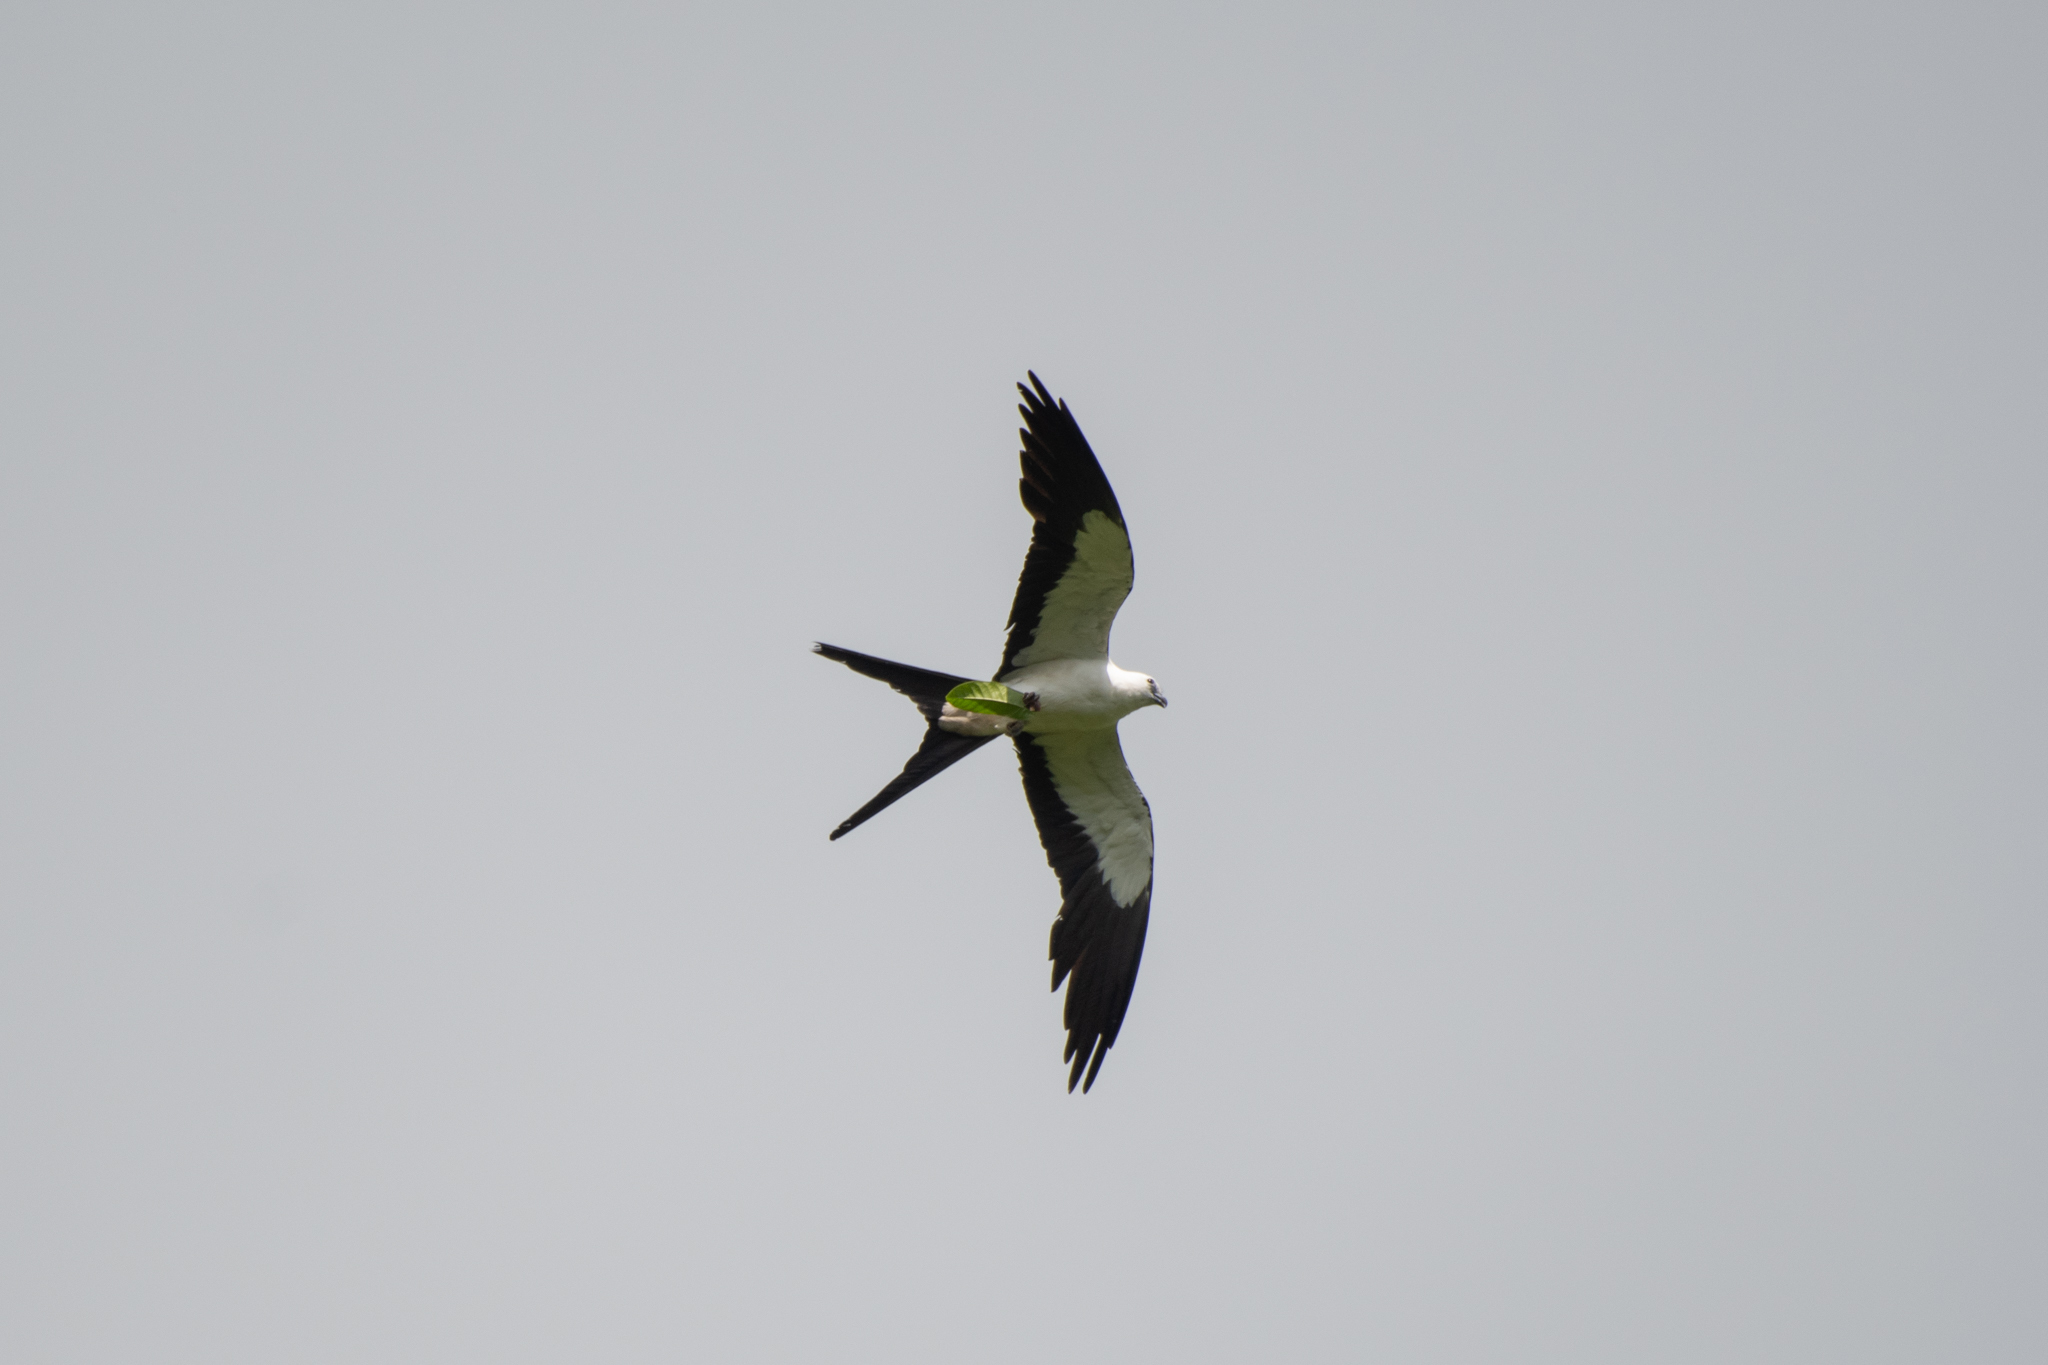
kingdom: Animalia
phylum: Chordata
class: Aves
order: Accipitriformes
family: Accipitridae
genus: Elanoides
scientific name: Elanoides forficatus
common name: Swallow-tailed kite
